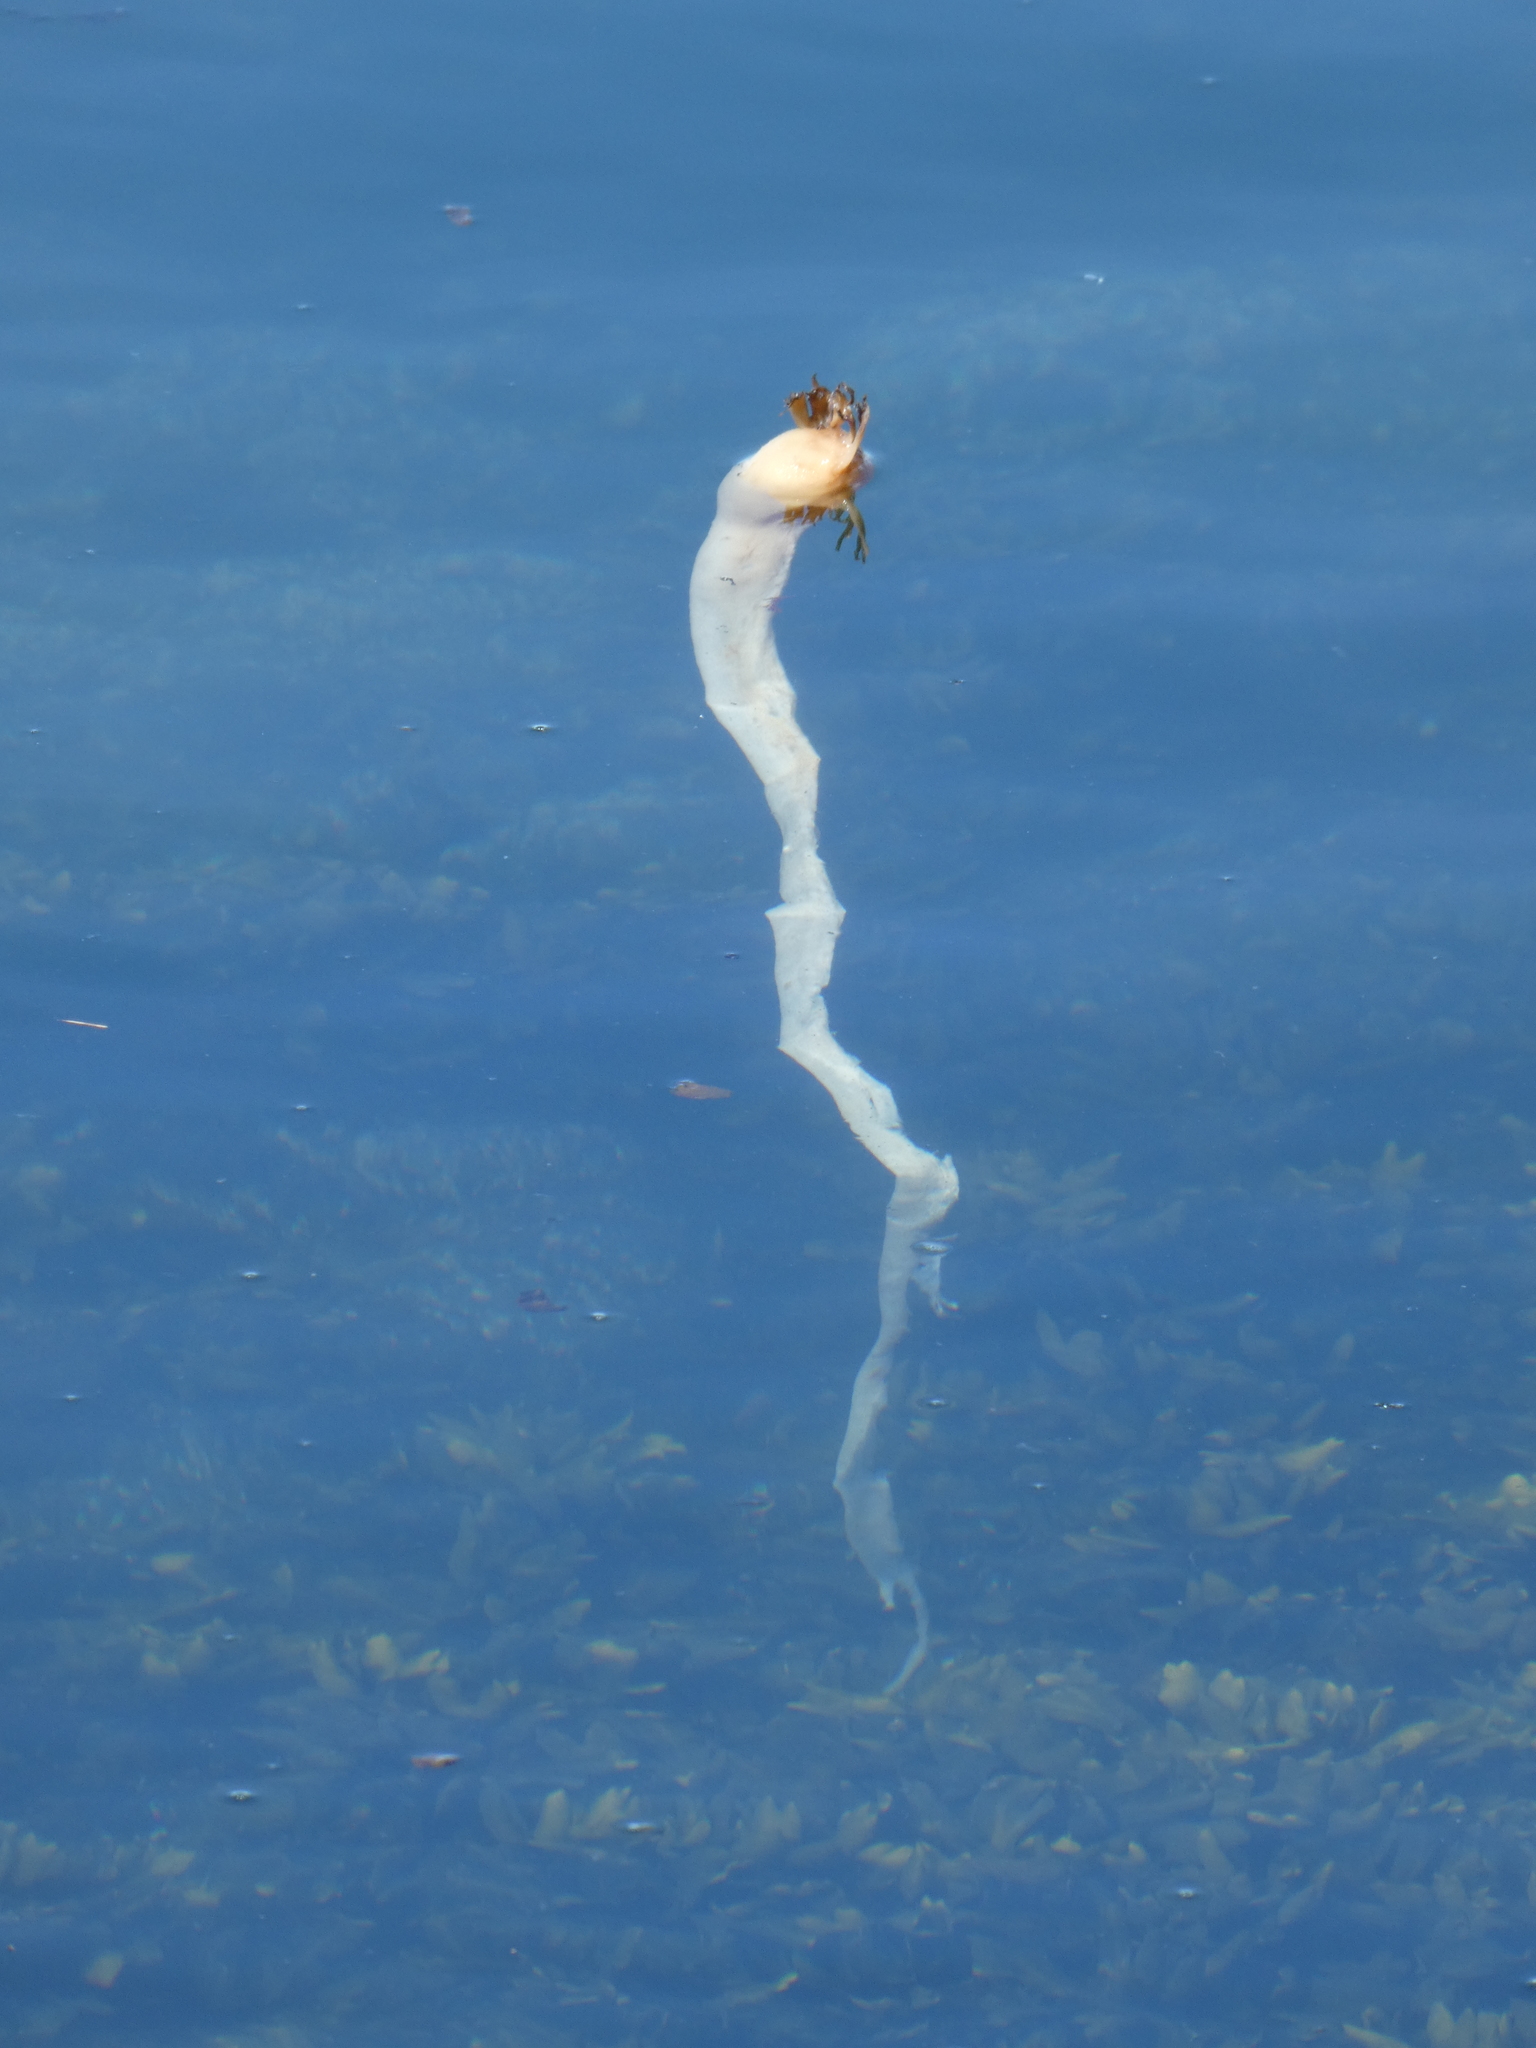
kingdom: Chromista
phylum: Ochrophyta
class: Phaeophyceae
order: Laminariales
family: Laminariaceae
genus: Nereocystis
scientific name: Nereocystis luetkeana
